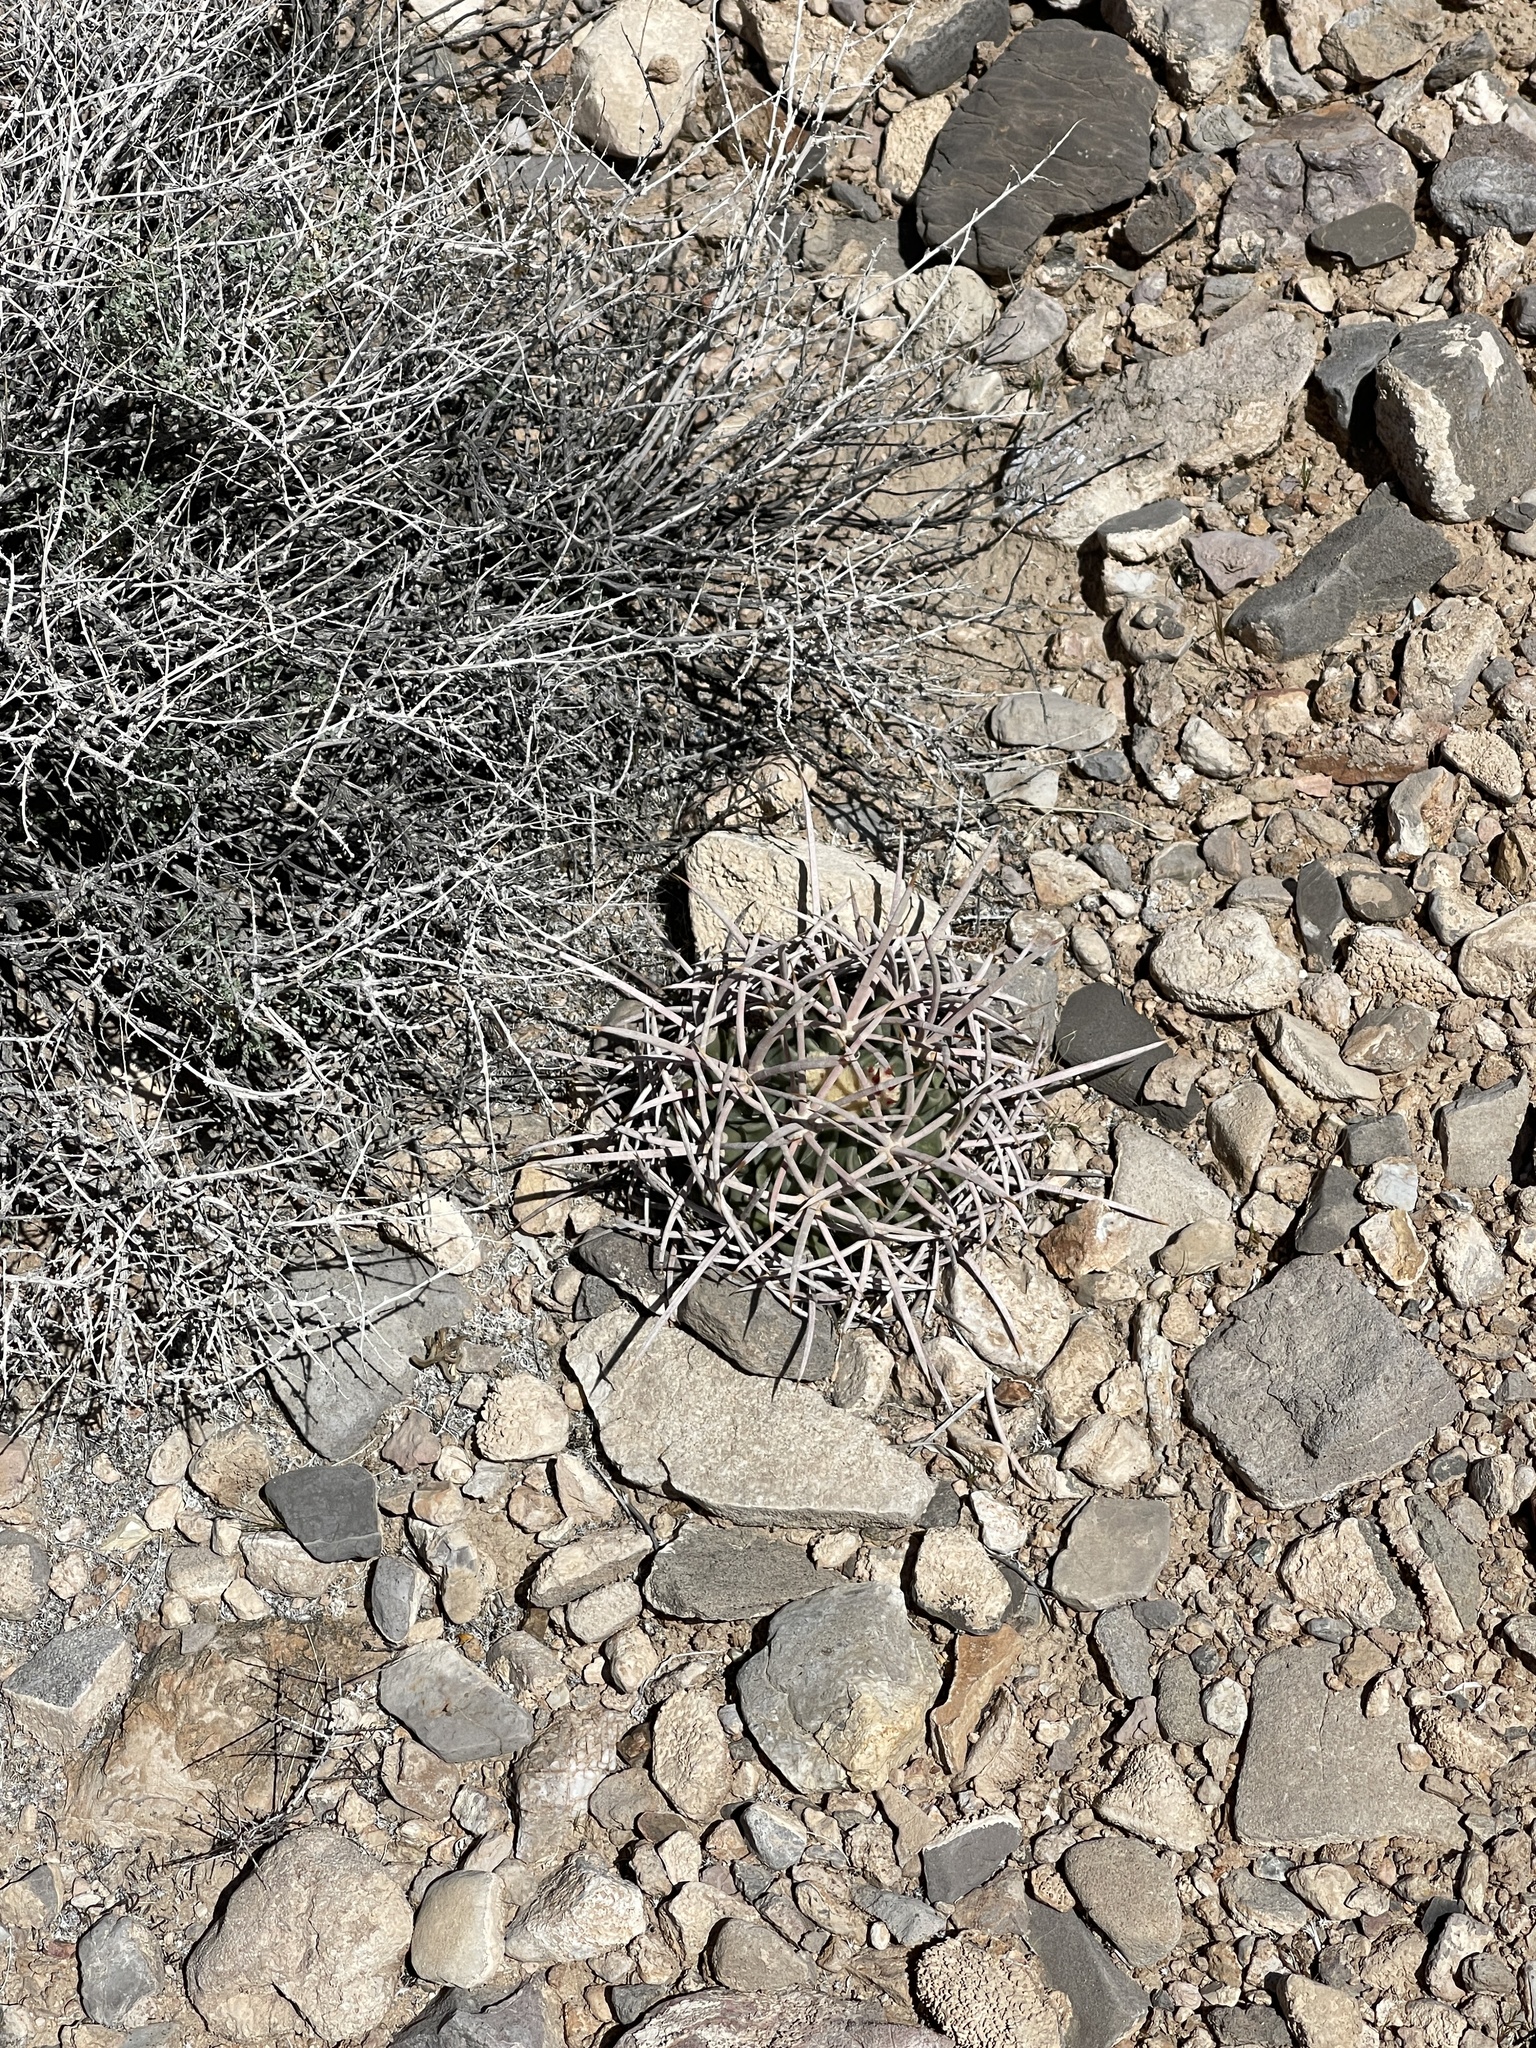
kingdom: Plantae
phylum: Tracheophyta
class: Magnoliopsida
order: Caryophyllales
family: Cactaceae
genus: Echinocactus
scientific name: Echinocactus polycephalus
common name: Cottontop cactus
